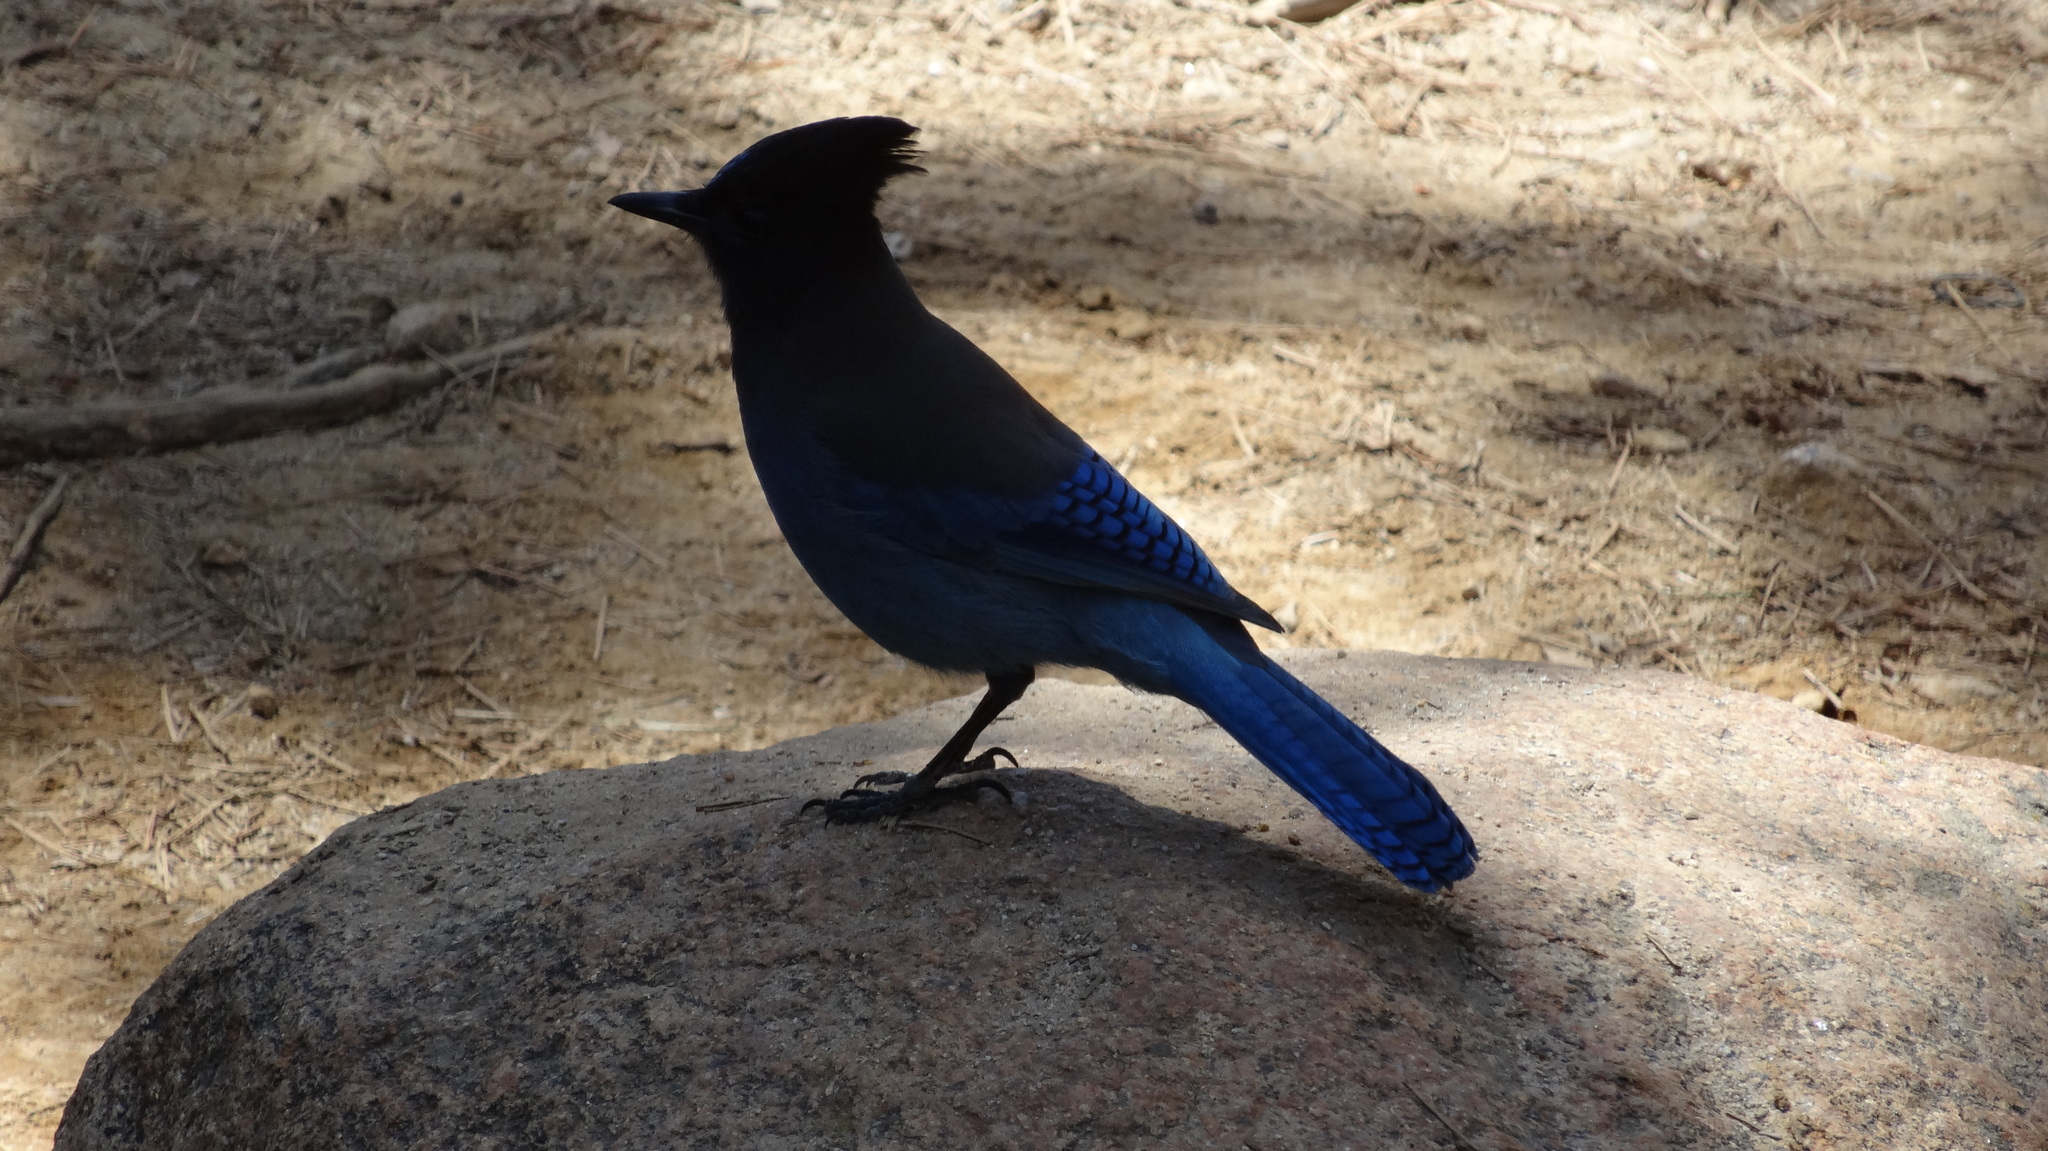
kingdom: Animalia
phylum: Chordata
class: Aves
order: Passeriformes
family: Corvidae
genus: Cyanocitta
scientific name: Cyanocitta stelleri
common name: Steller's jay
